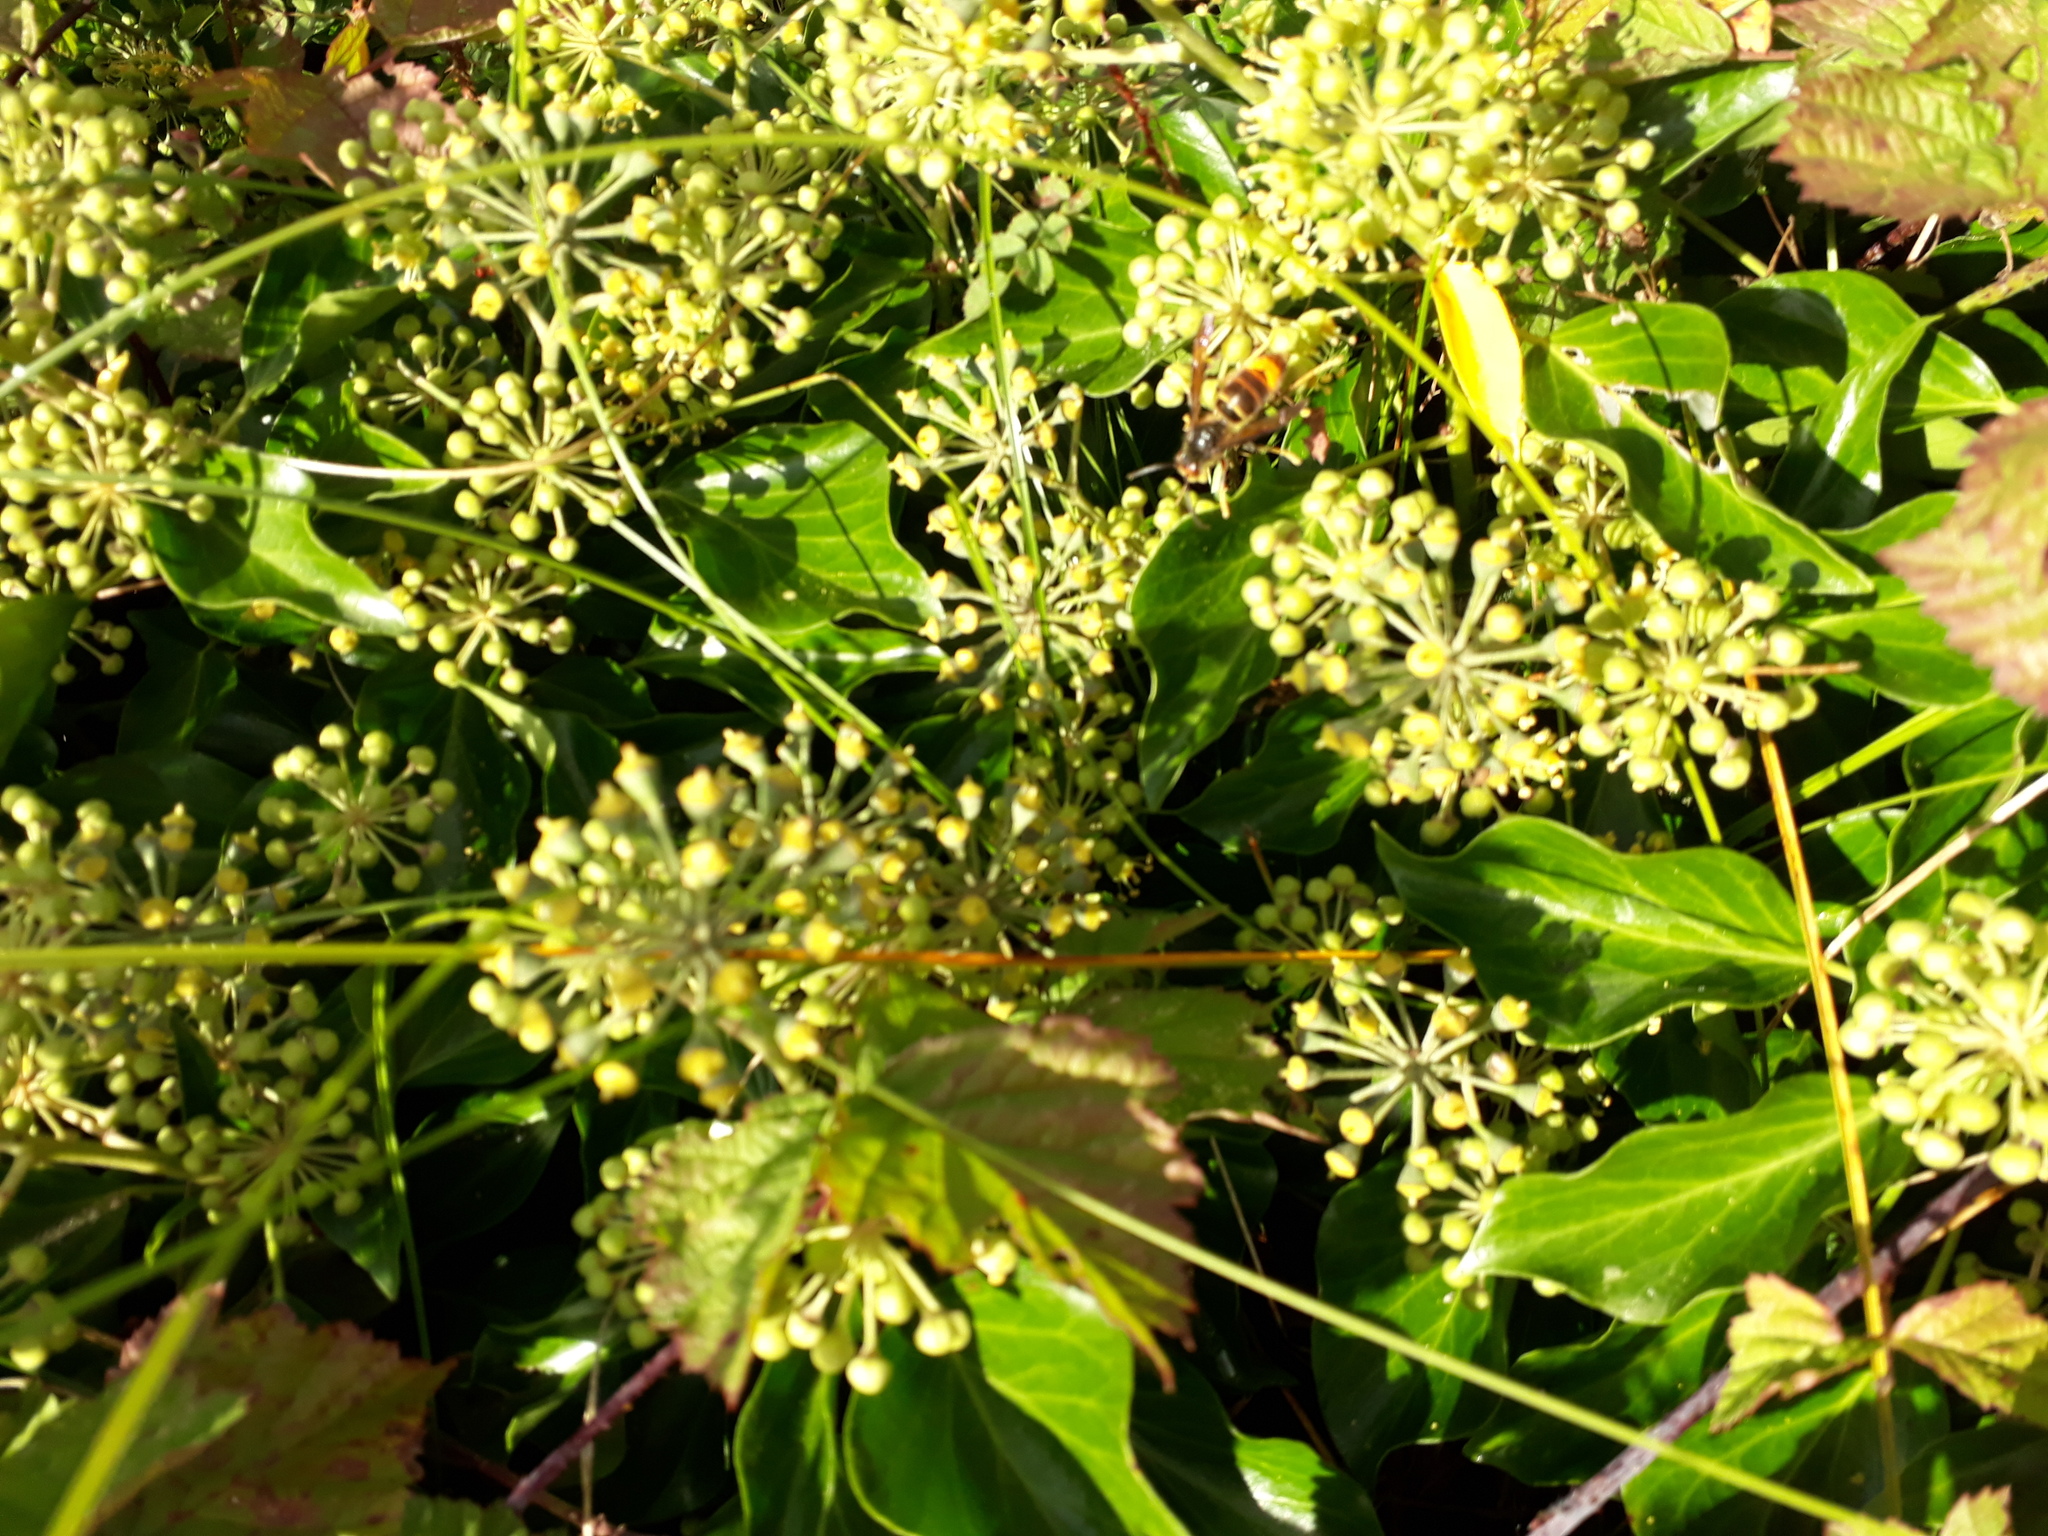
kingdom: Animalia
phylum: Arthropoda
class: Insecta
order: Hymenoptera
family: Vespidae
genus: Vespa
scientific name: Vespa velutina
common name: Asian hornet
